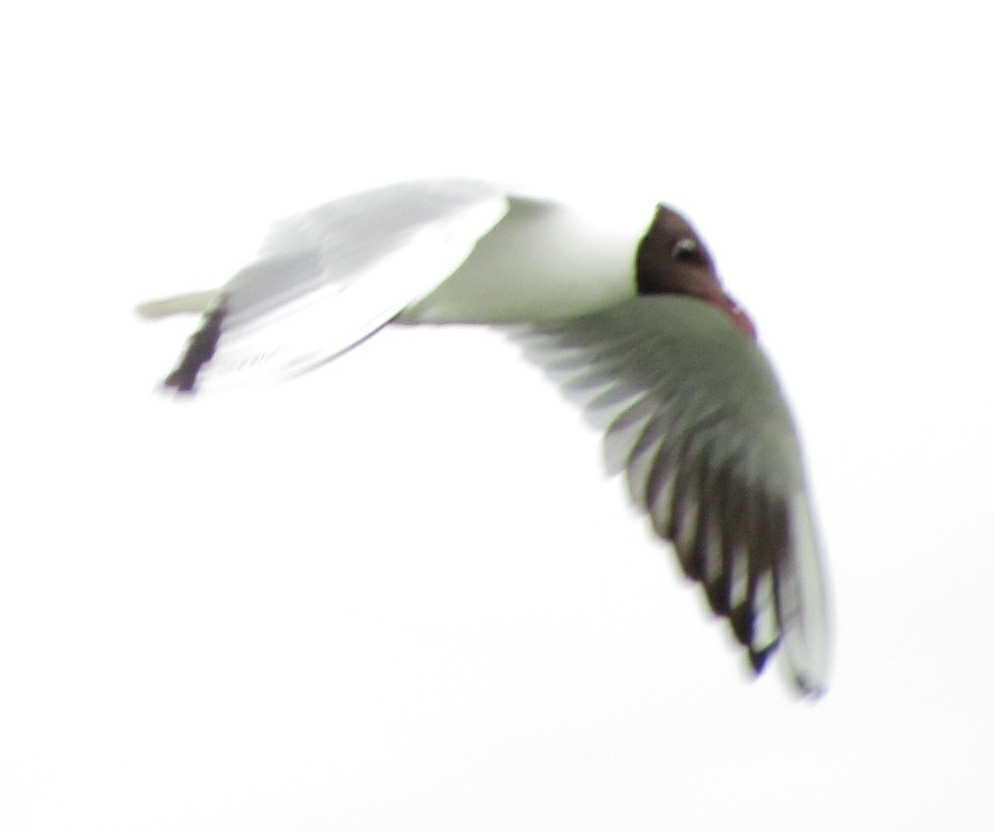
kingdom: Animalia
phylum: Chordata
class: Aves
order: Charadriiformes
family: Laridae
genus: Chroicocephalus
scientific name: Chroicocephalus ridibundus
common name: Black-headed gull
